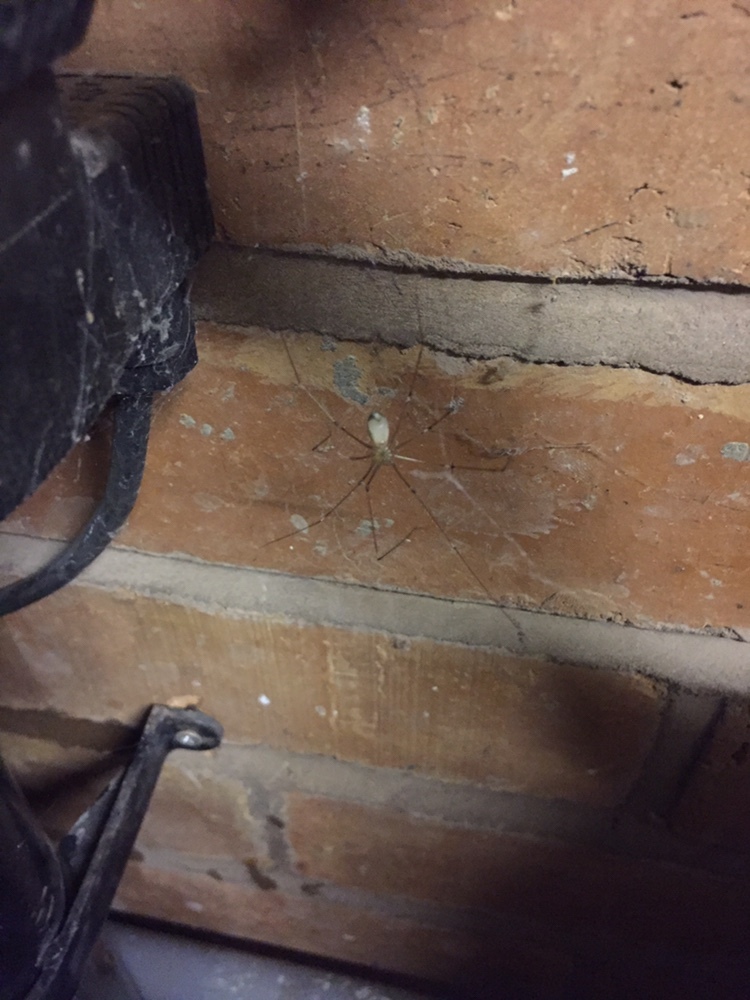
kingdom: Animalia
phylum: Arthropoda
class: Arachnida
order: Araneae
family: Pholcidae
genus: Pholcus
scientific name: Pholcus phalangioides
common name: Longbodied cellar spider
